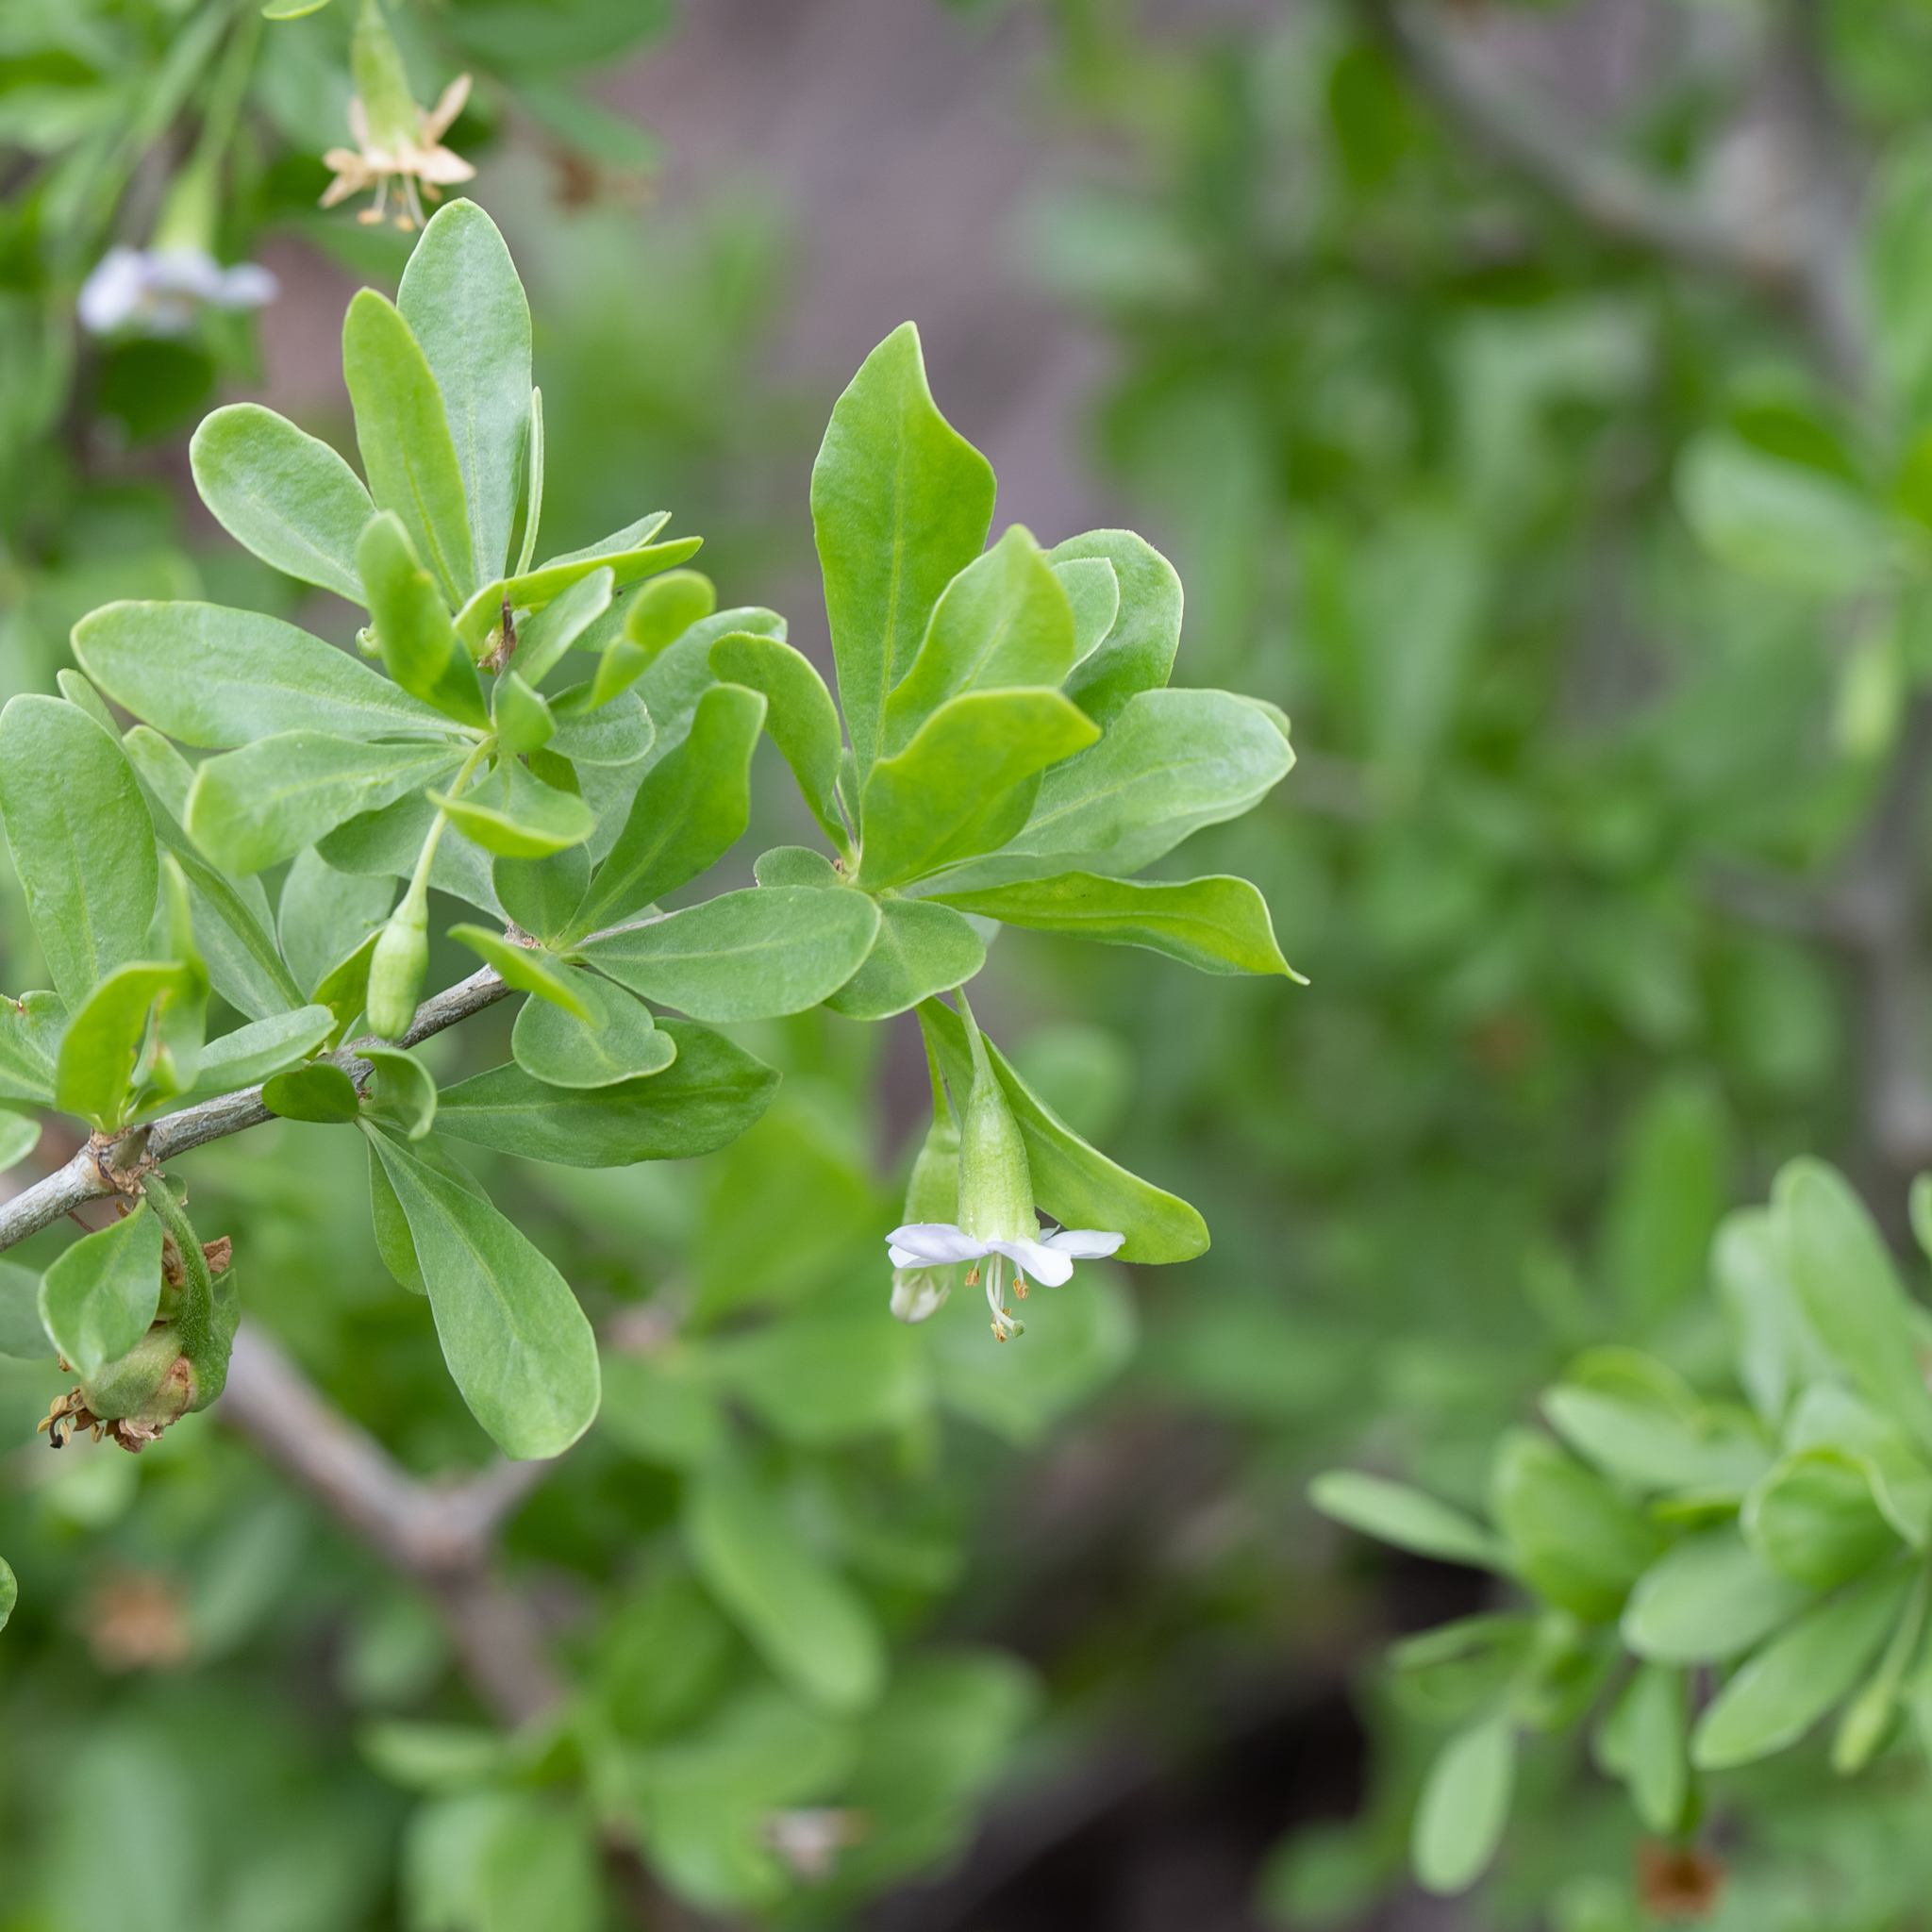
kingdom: Plantae
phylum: Tracheophyta
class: Magnoliopsida
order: Solanales
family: Solanaceae
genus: Lycium
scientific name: Lycium ferocissimum
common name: African boxthorn
